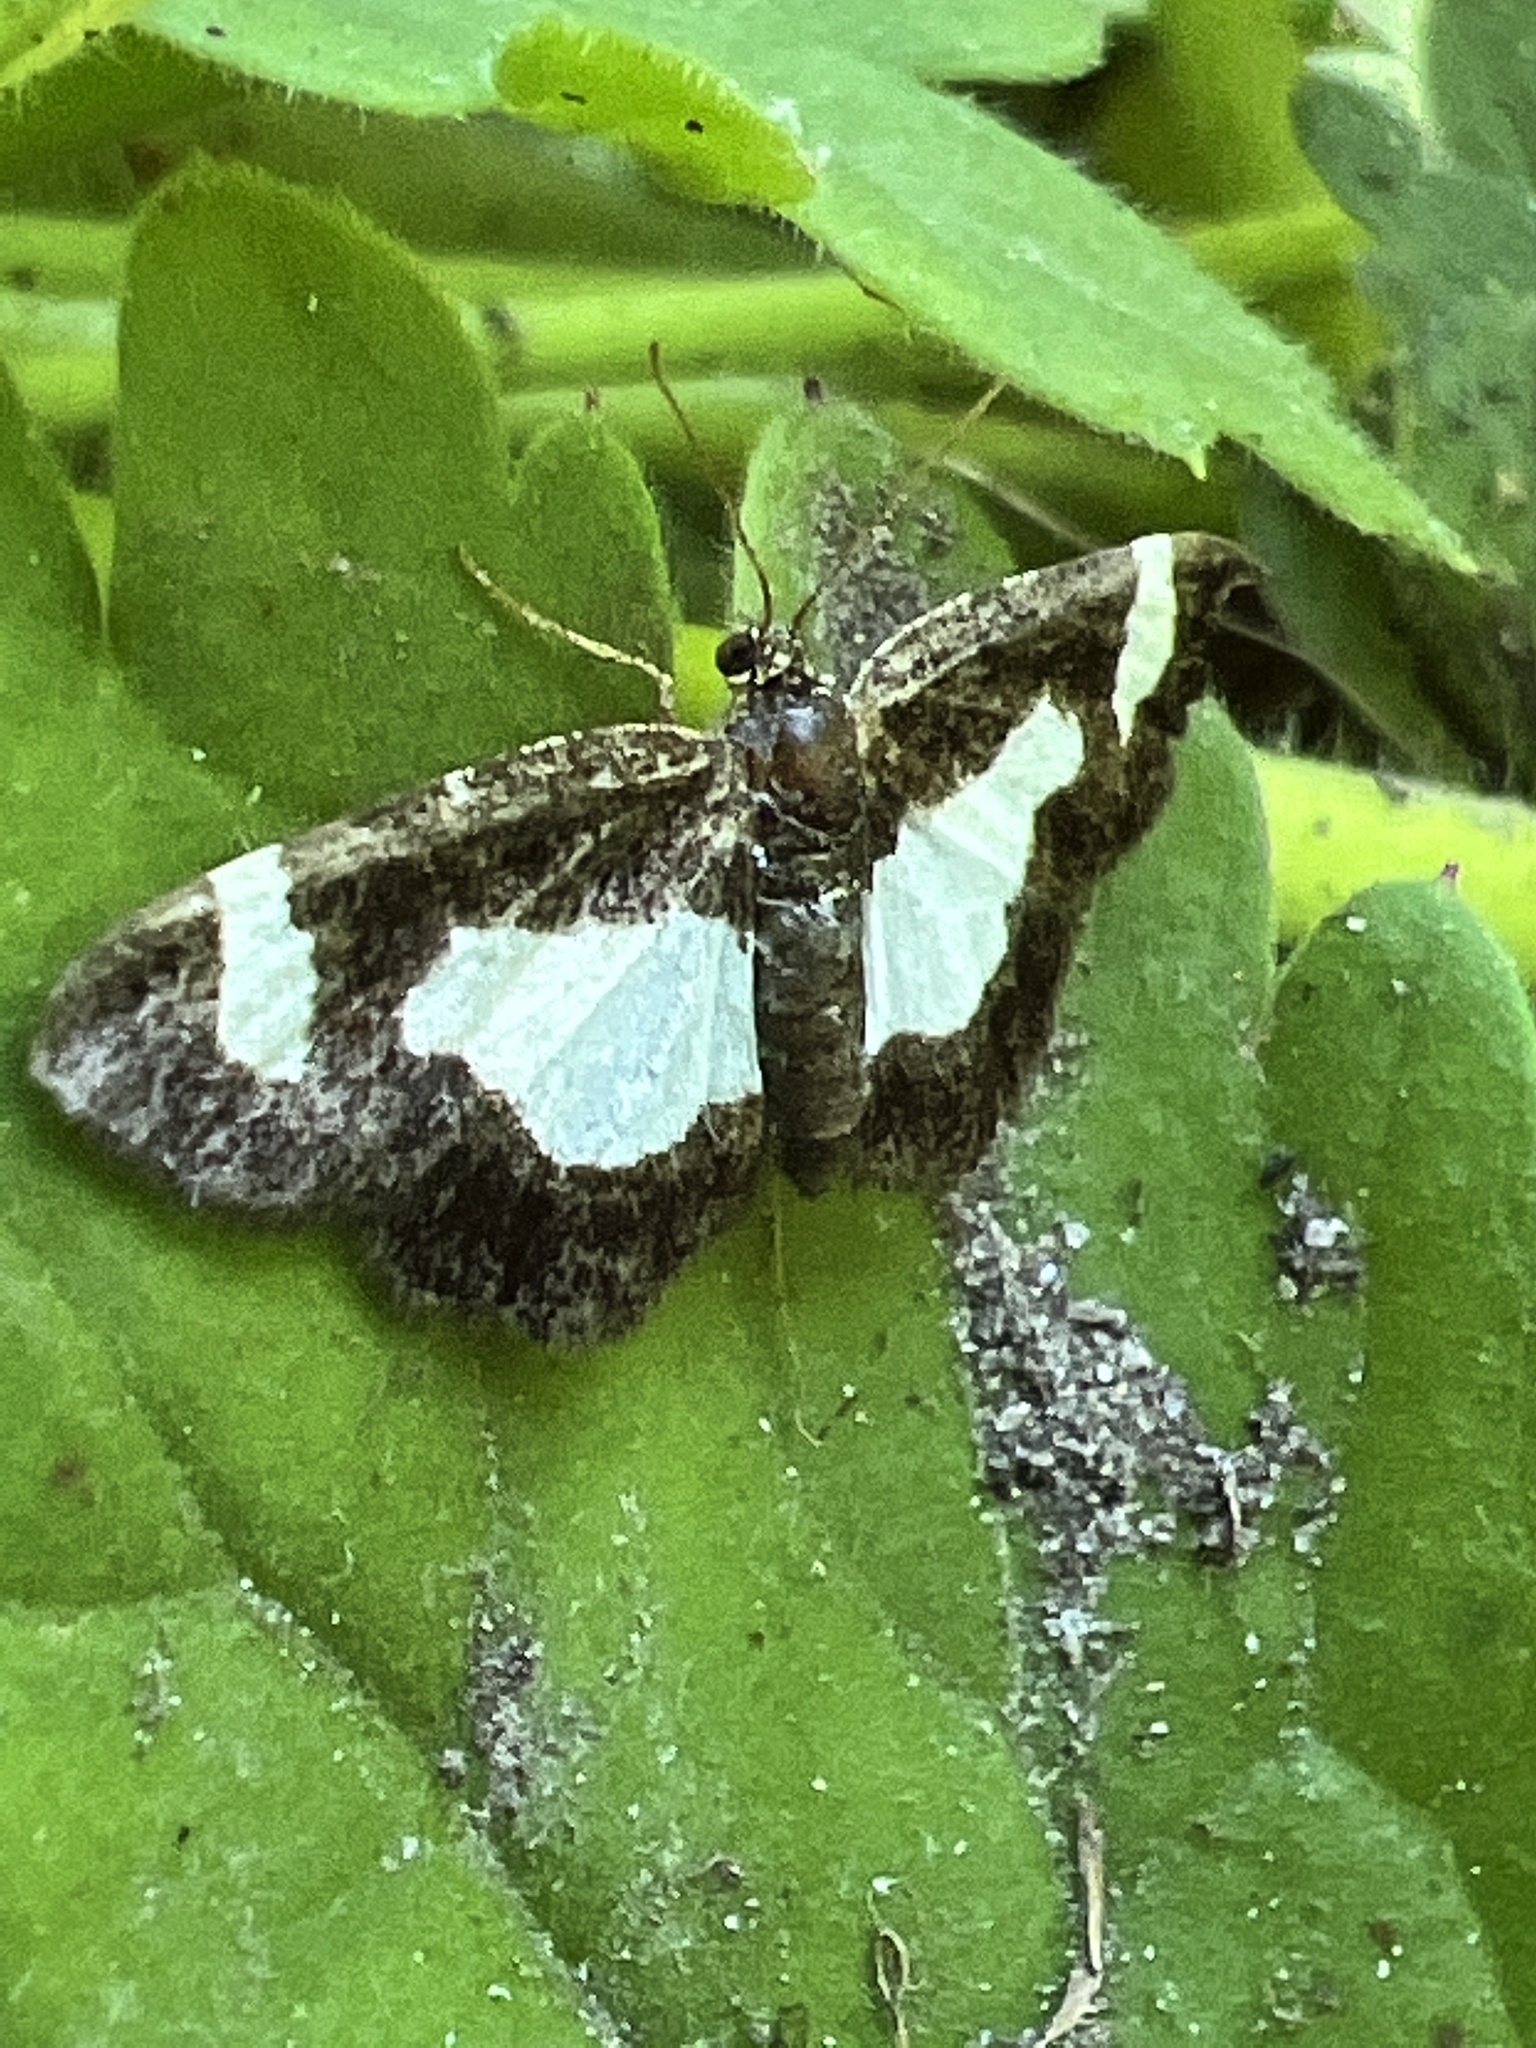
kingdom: Animalia
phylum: Arthropoda
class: Insecta
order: Lepidoptera
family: Geometridae
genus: Heliomata
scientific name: Heliomata cycladata
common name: Common spring moth
